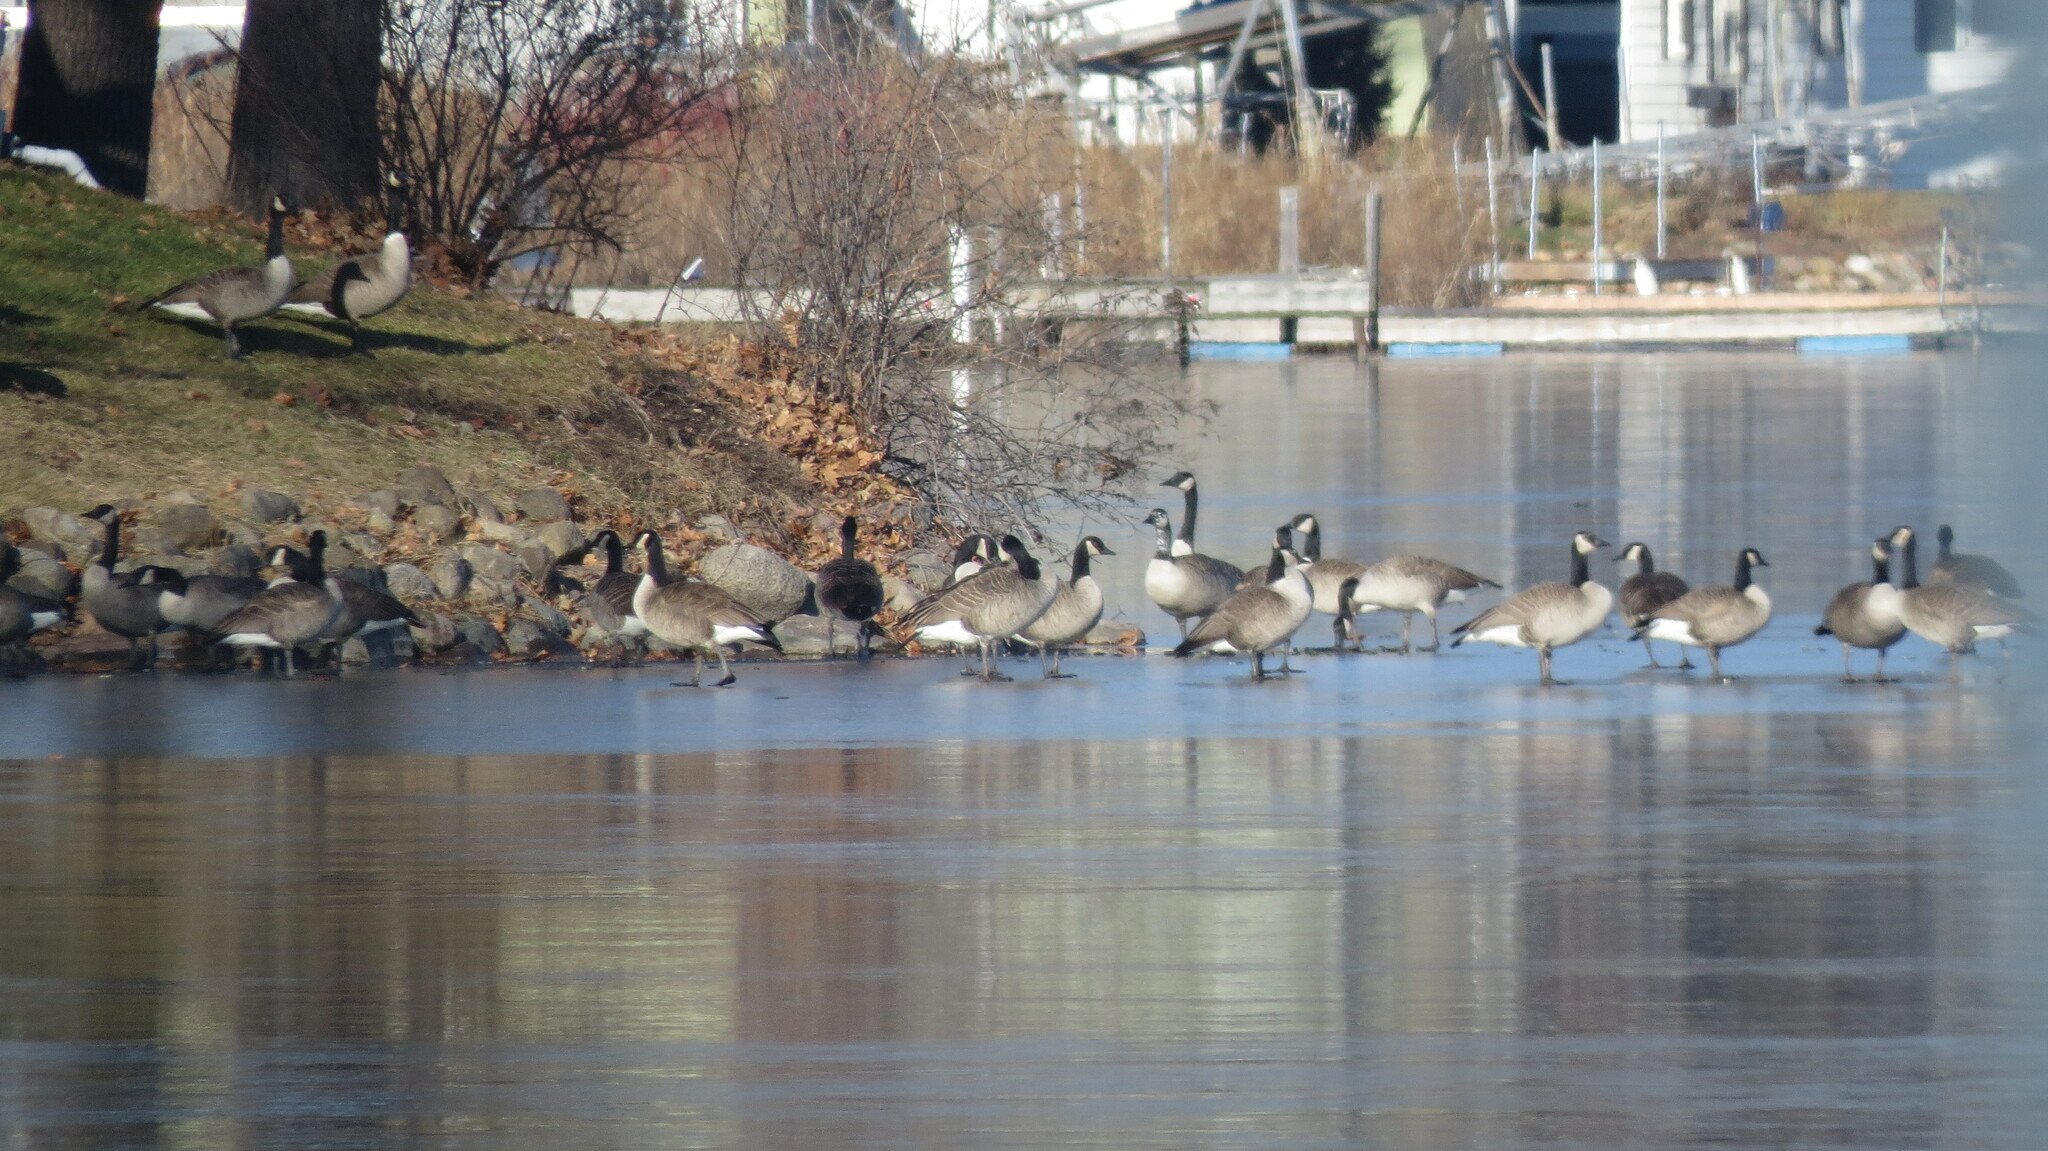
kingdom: Animalia
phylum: Chordata
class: Aves
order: Anseriformes
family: Anatidae
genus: Branta
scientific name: Branta canadensis
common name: Canada goose
